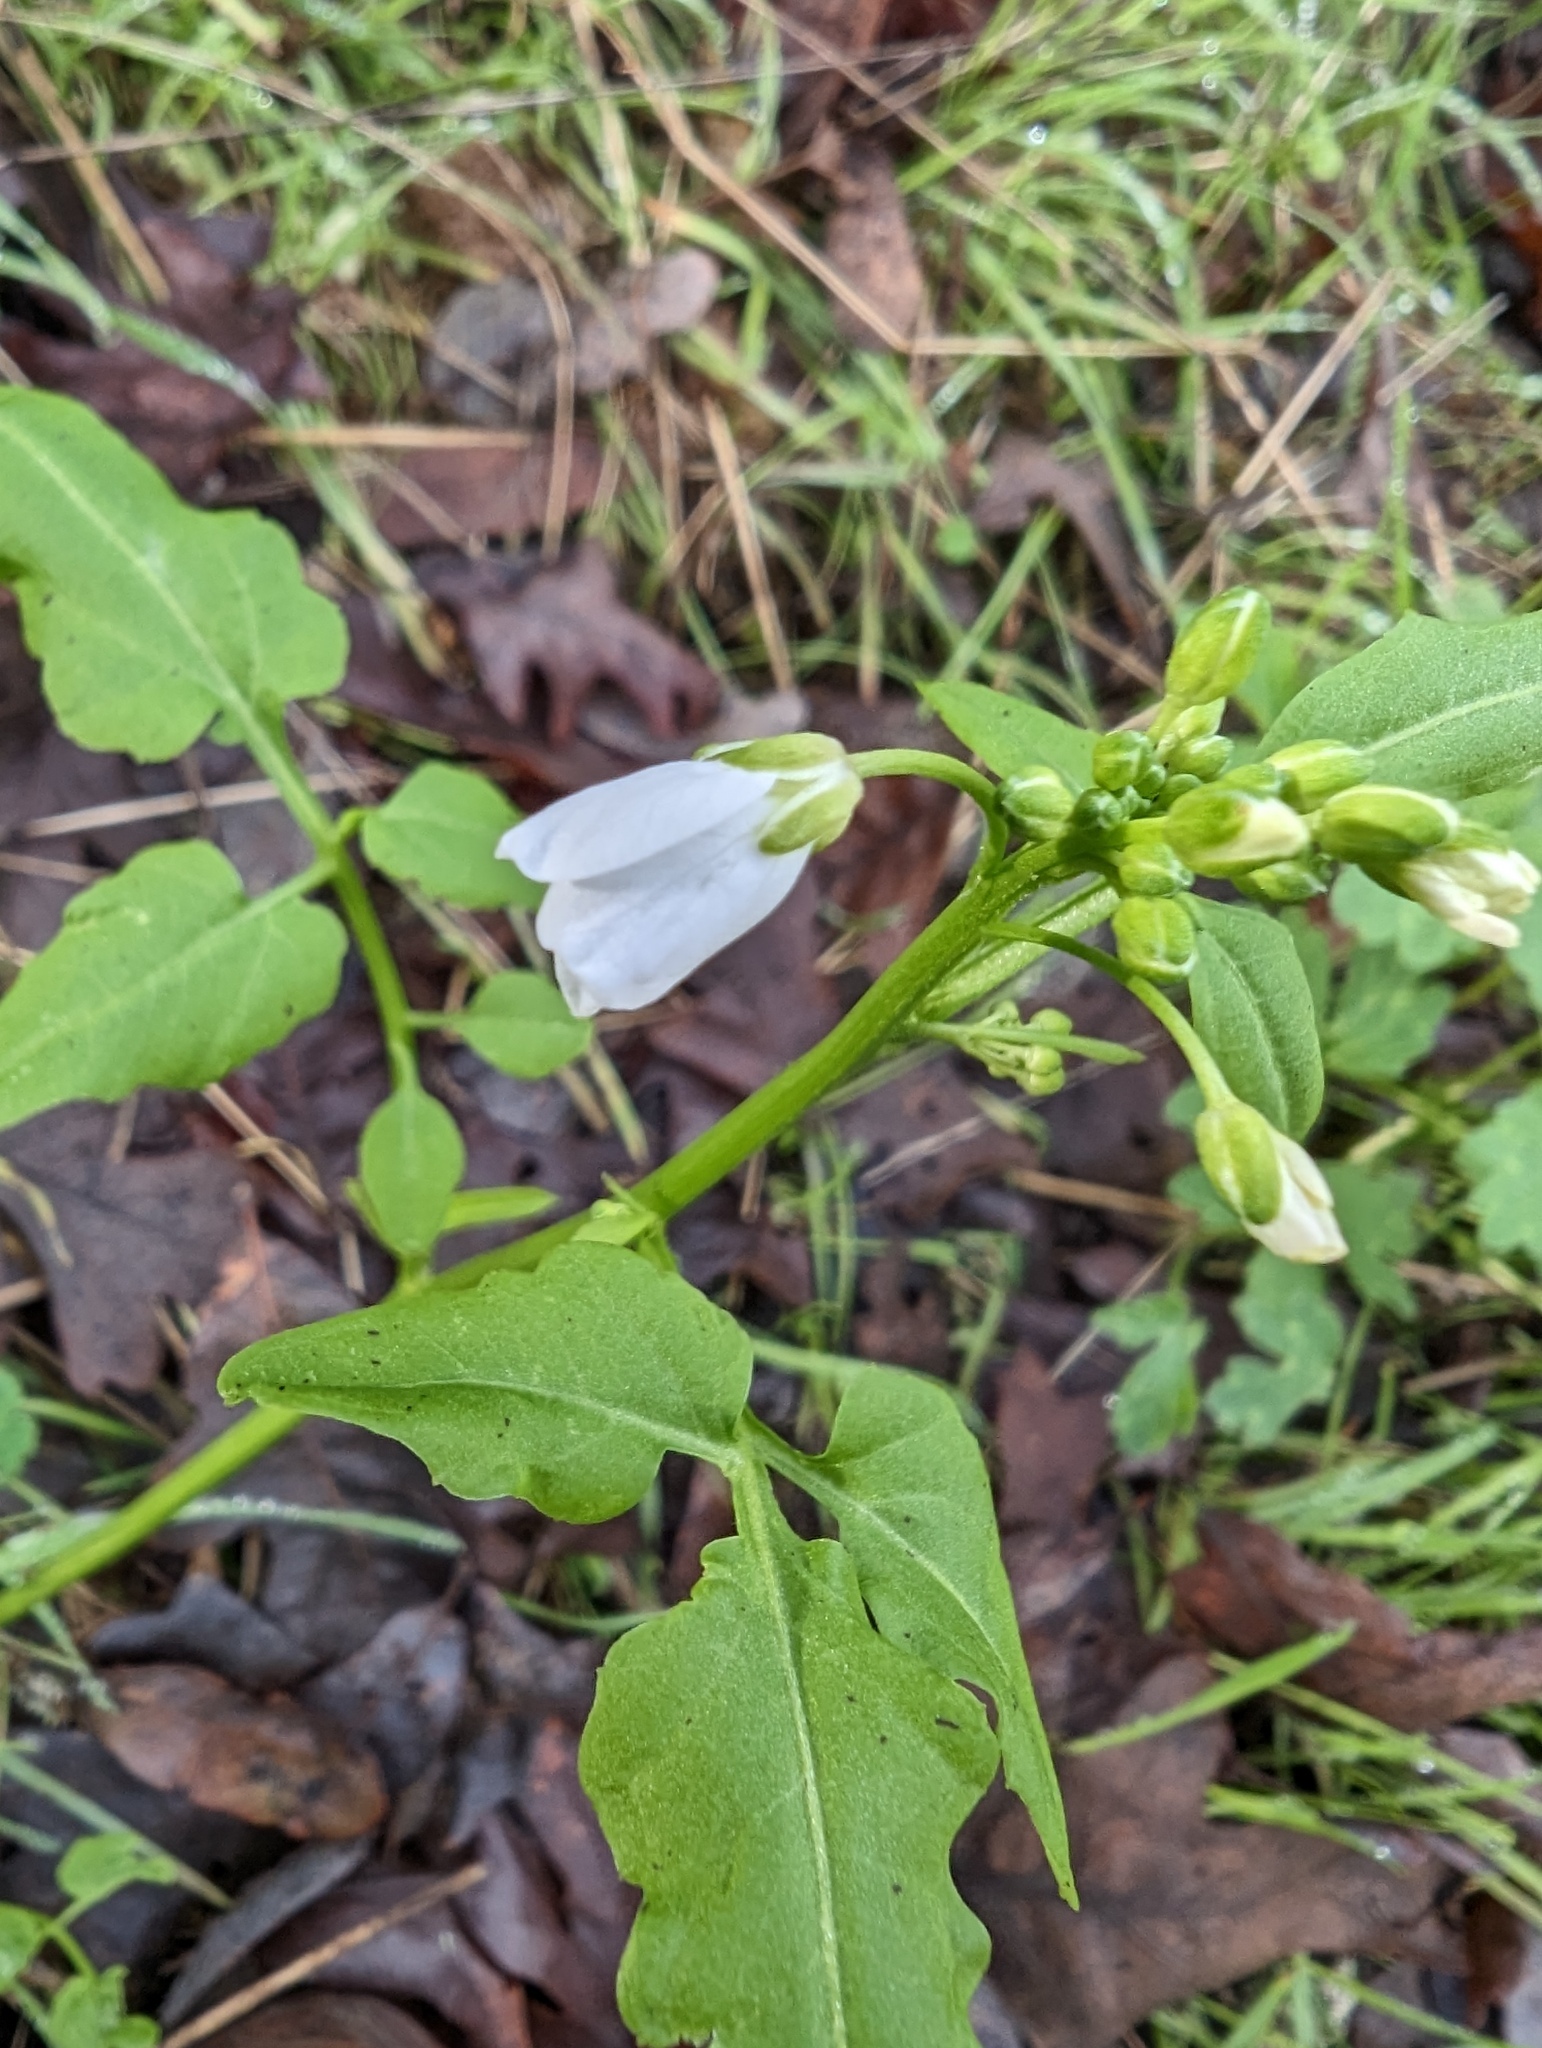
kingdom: Plantae
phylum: Tracheophyta
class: Magnoliopsida
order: Brassicales
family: Brassicaceae
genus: Cardamine
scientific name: Cardamine californica
